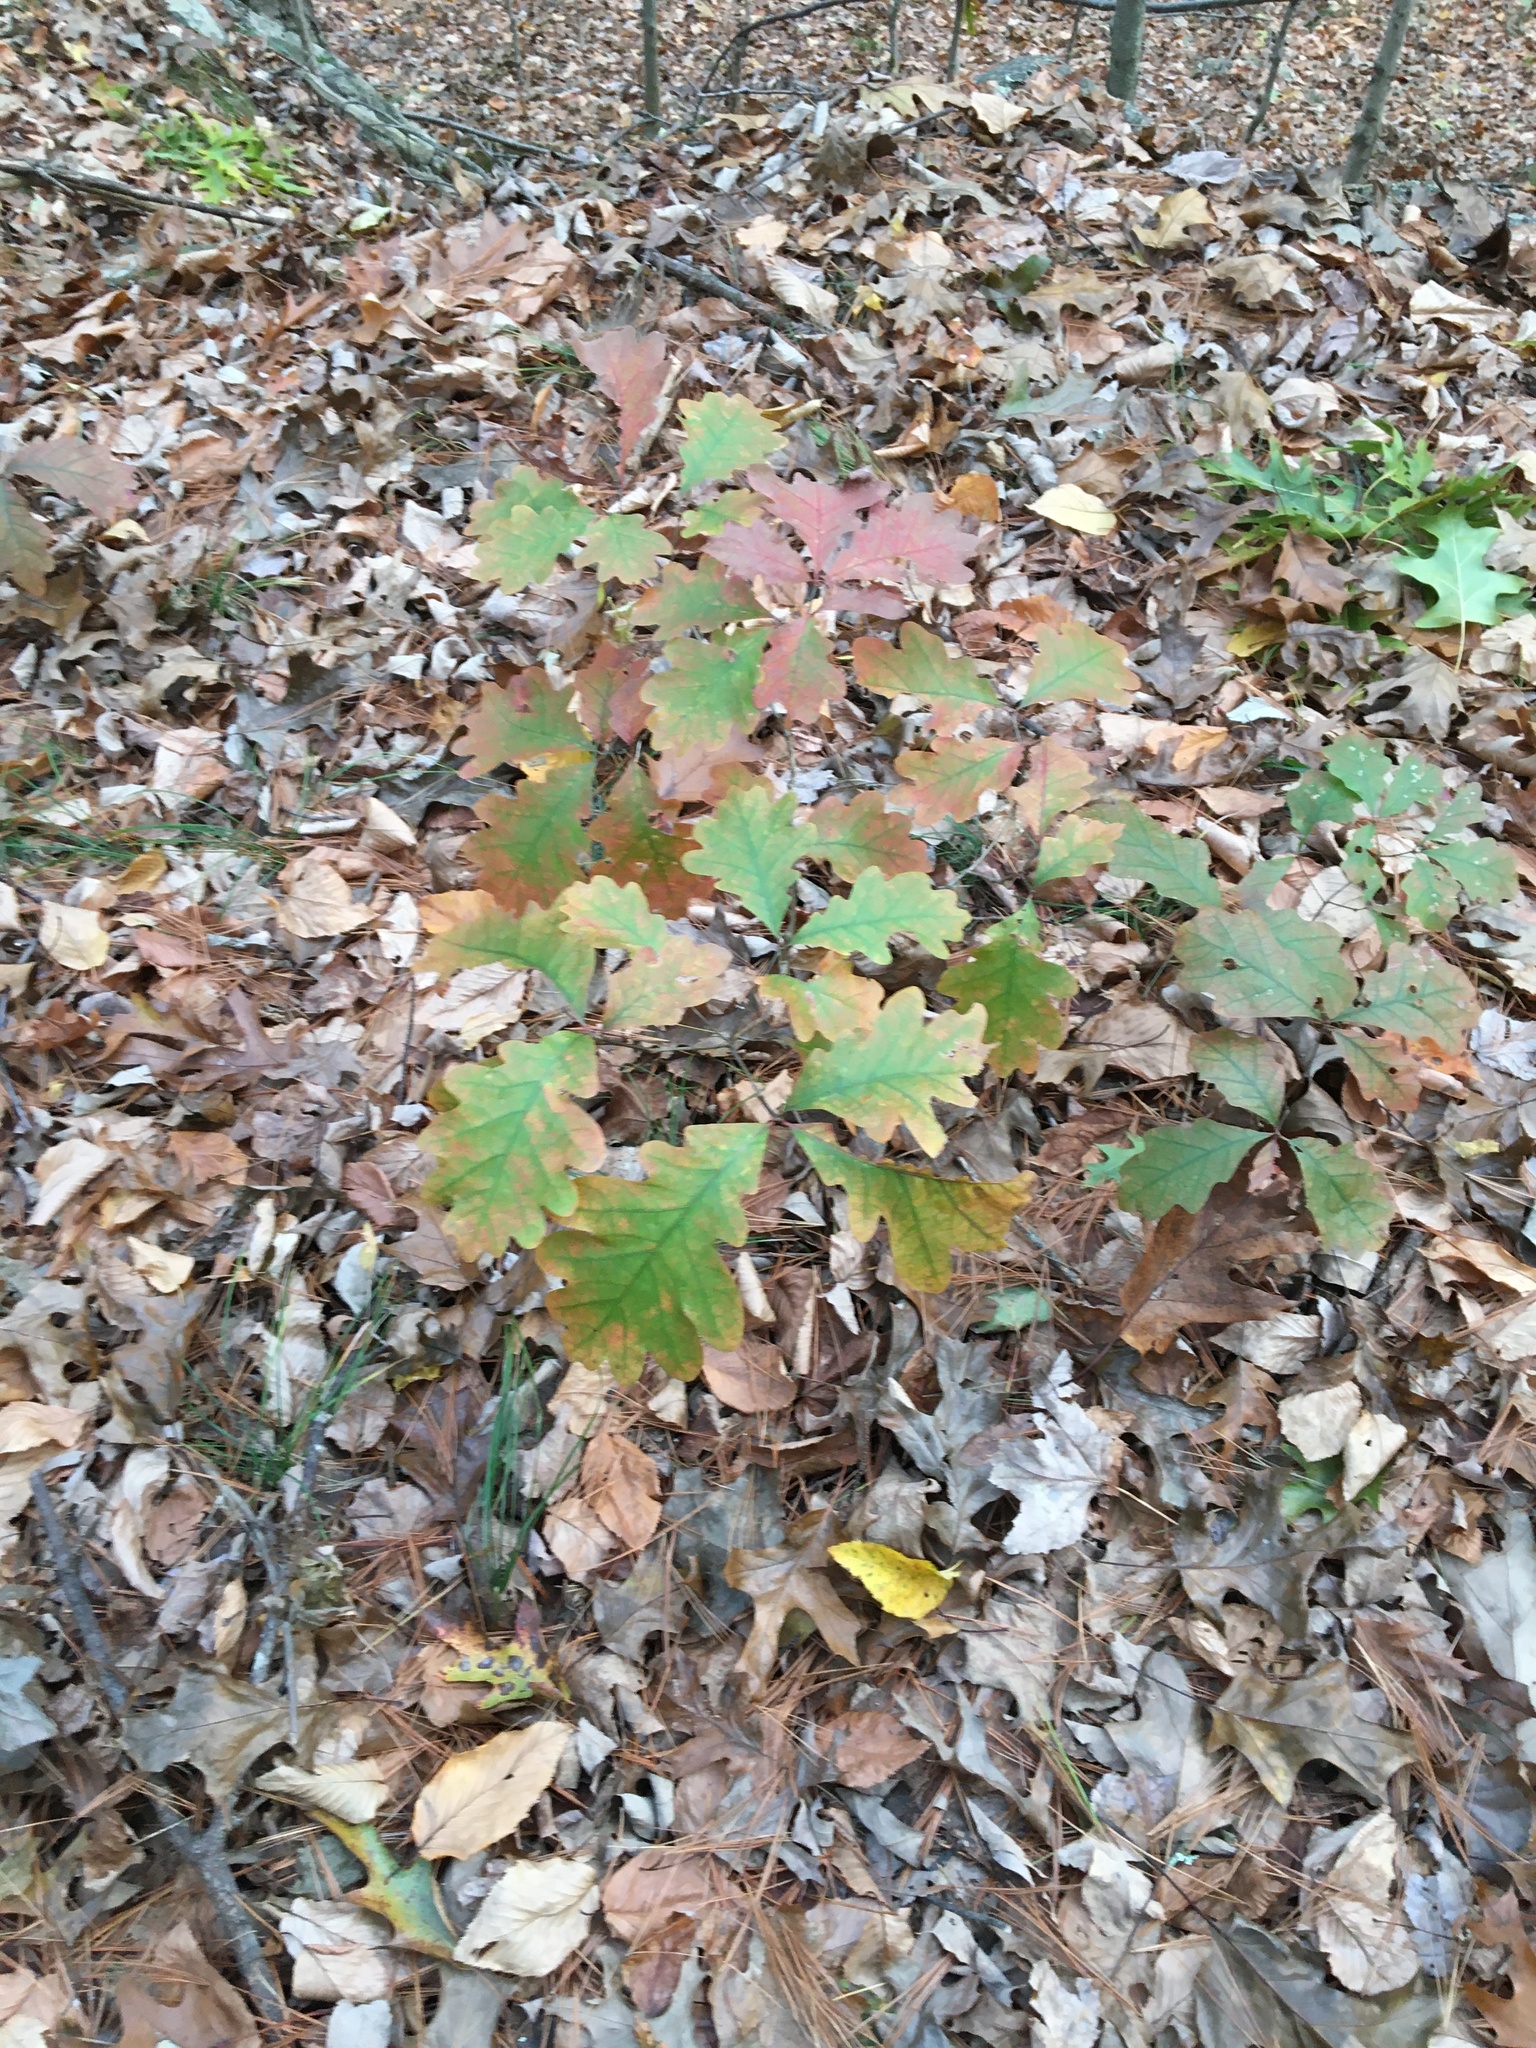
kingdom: Plantae
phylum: Tracheophyta
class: Magnoliopsida
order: Fagales
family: Fagaceae
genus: Quercus
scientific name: Quercus alba
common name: White oak
